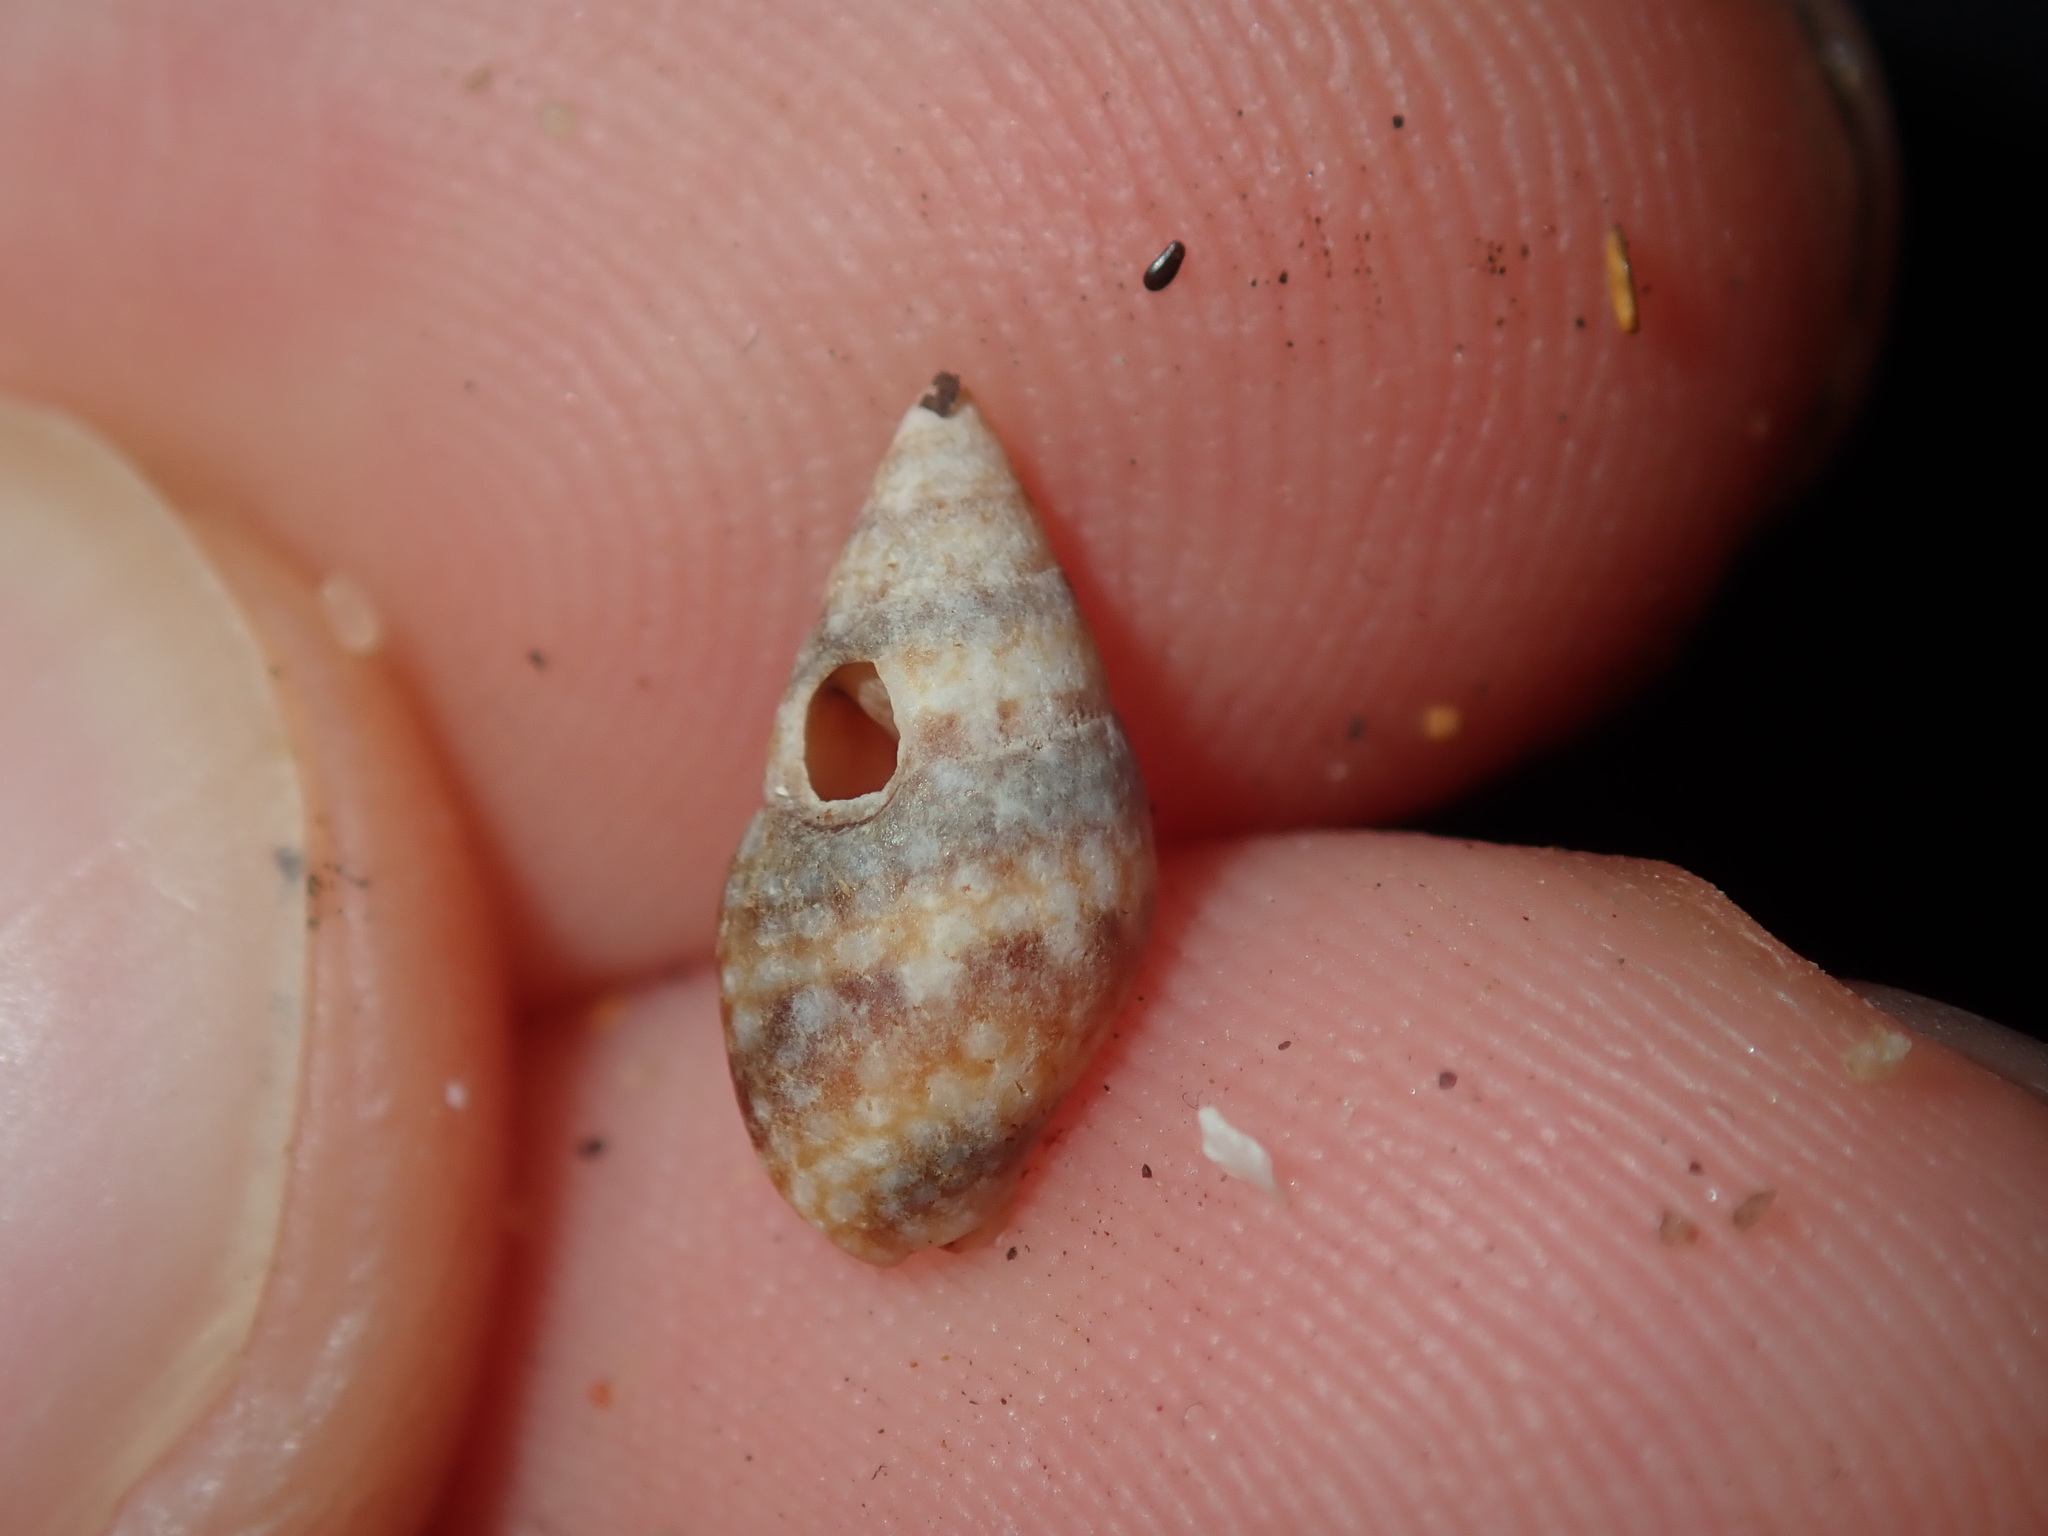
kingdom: Animalia
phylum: Mollusca
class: Gastropoda
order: Neogastropoda
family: Columbellidae
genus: Pseudamycla
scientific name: Pseudamycla dermestoidea
